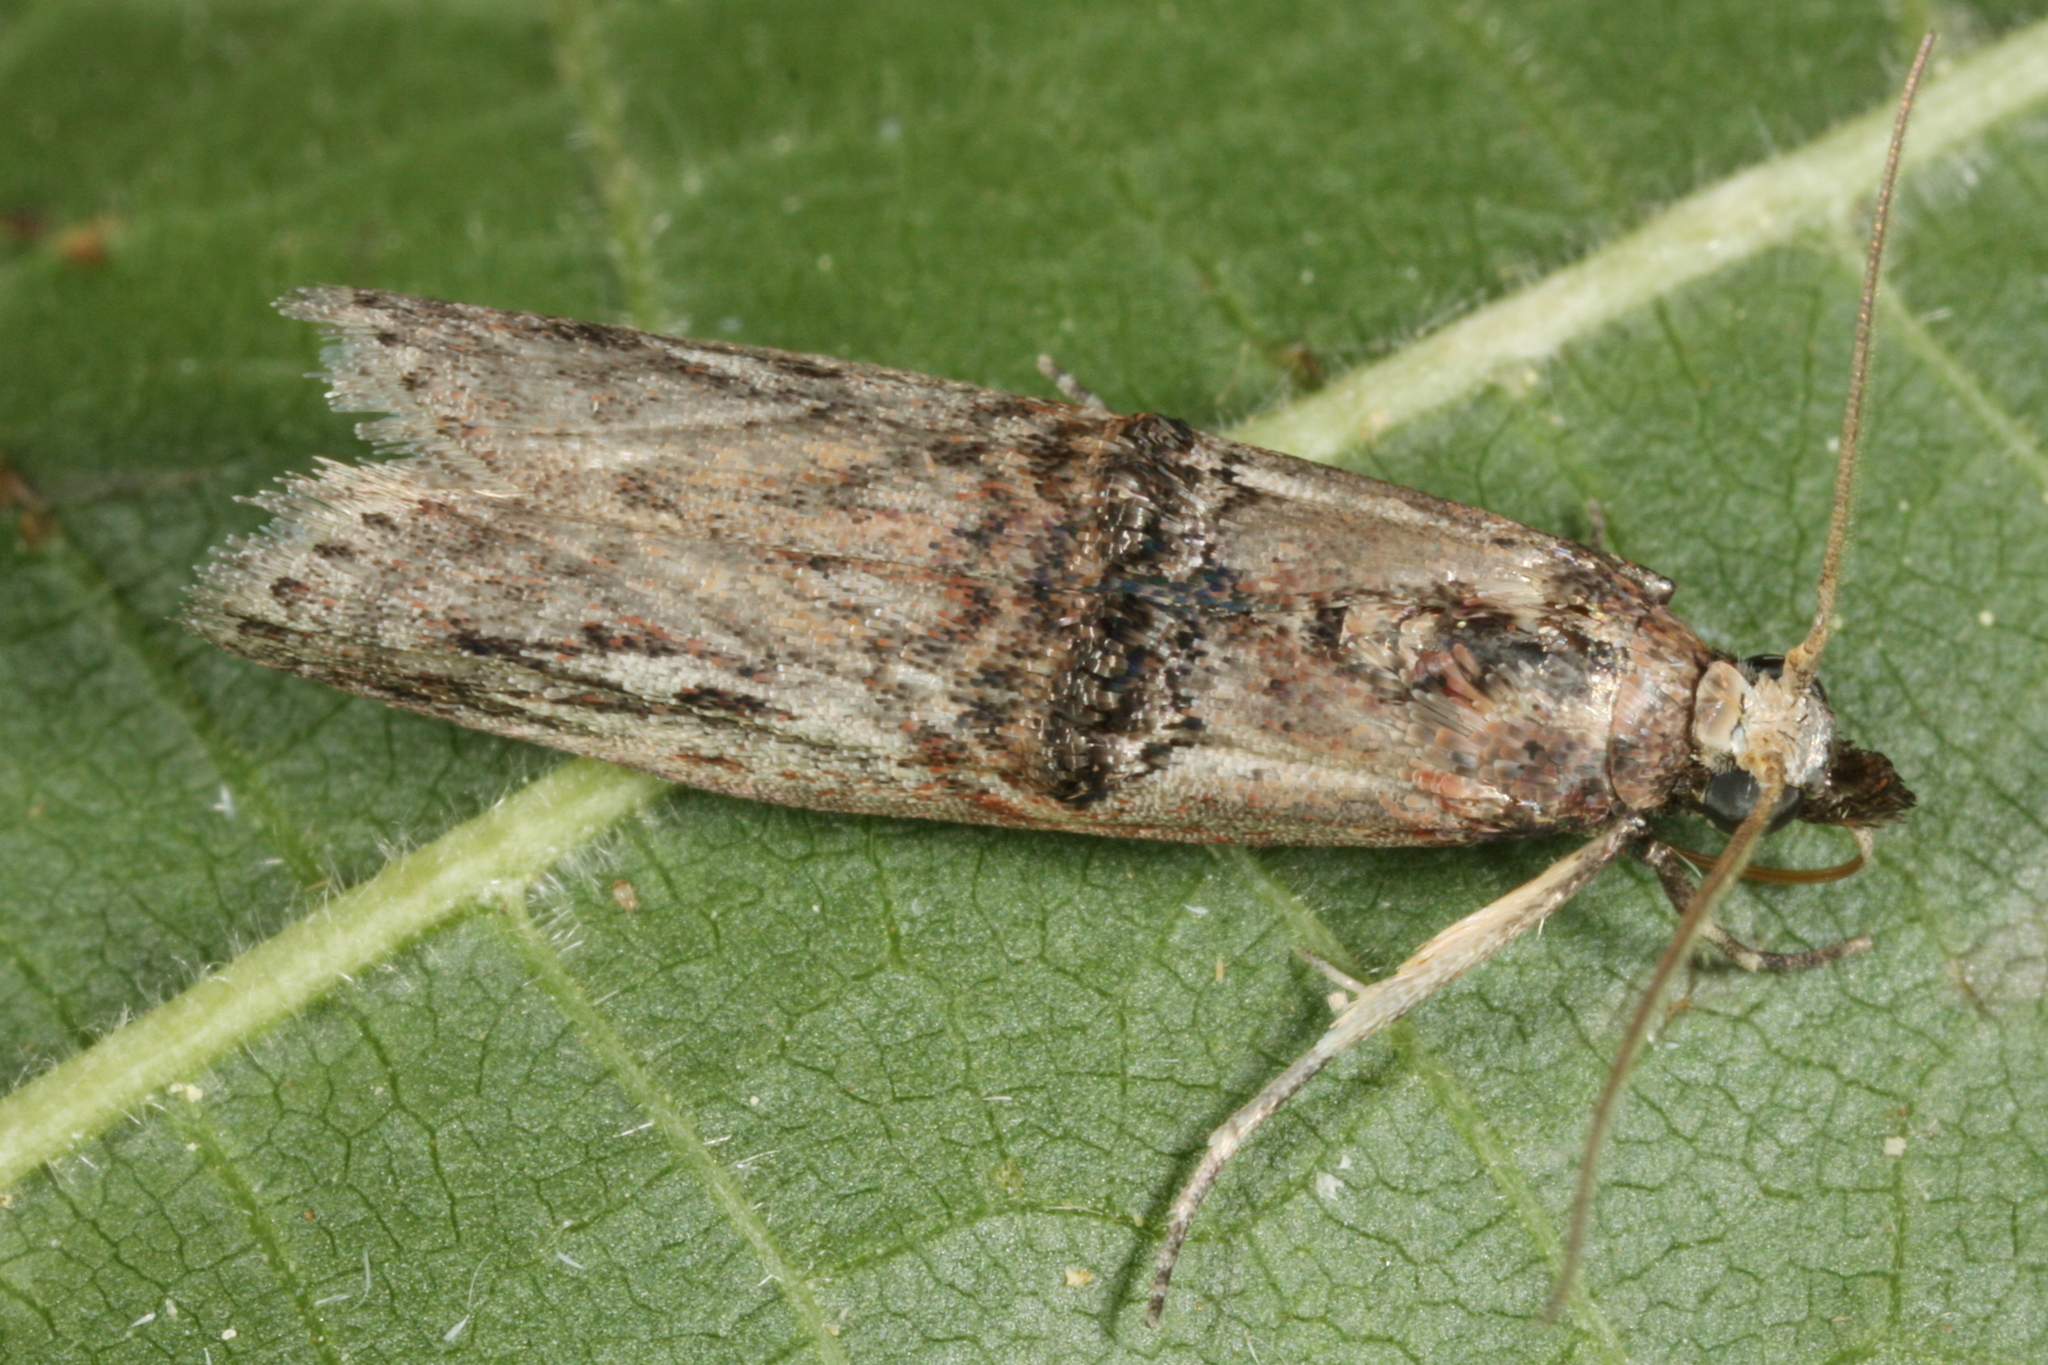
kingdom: Animalia
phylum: Arthropoda
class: Insecta
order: Lepidoptera
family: Pyralidae
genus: Nephopterix
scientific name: Nephopterix angustella
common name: Spindle knot-horn
